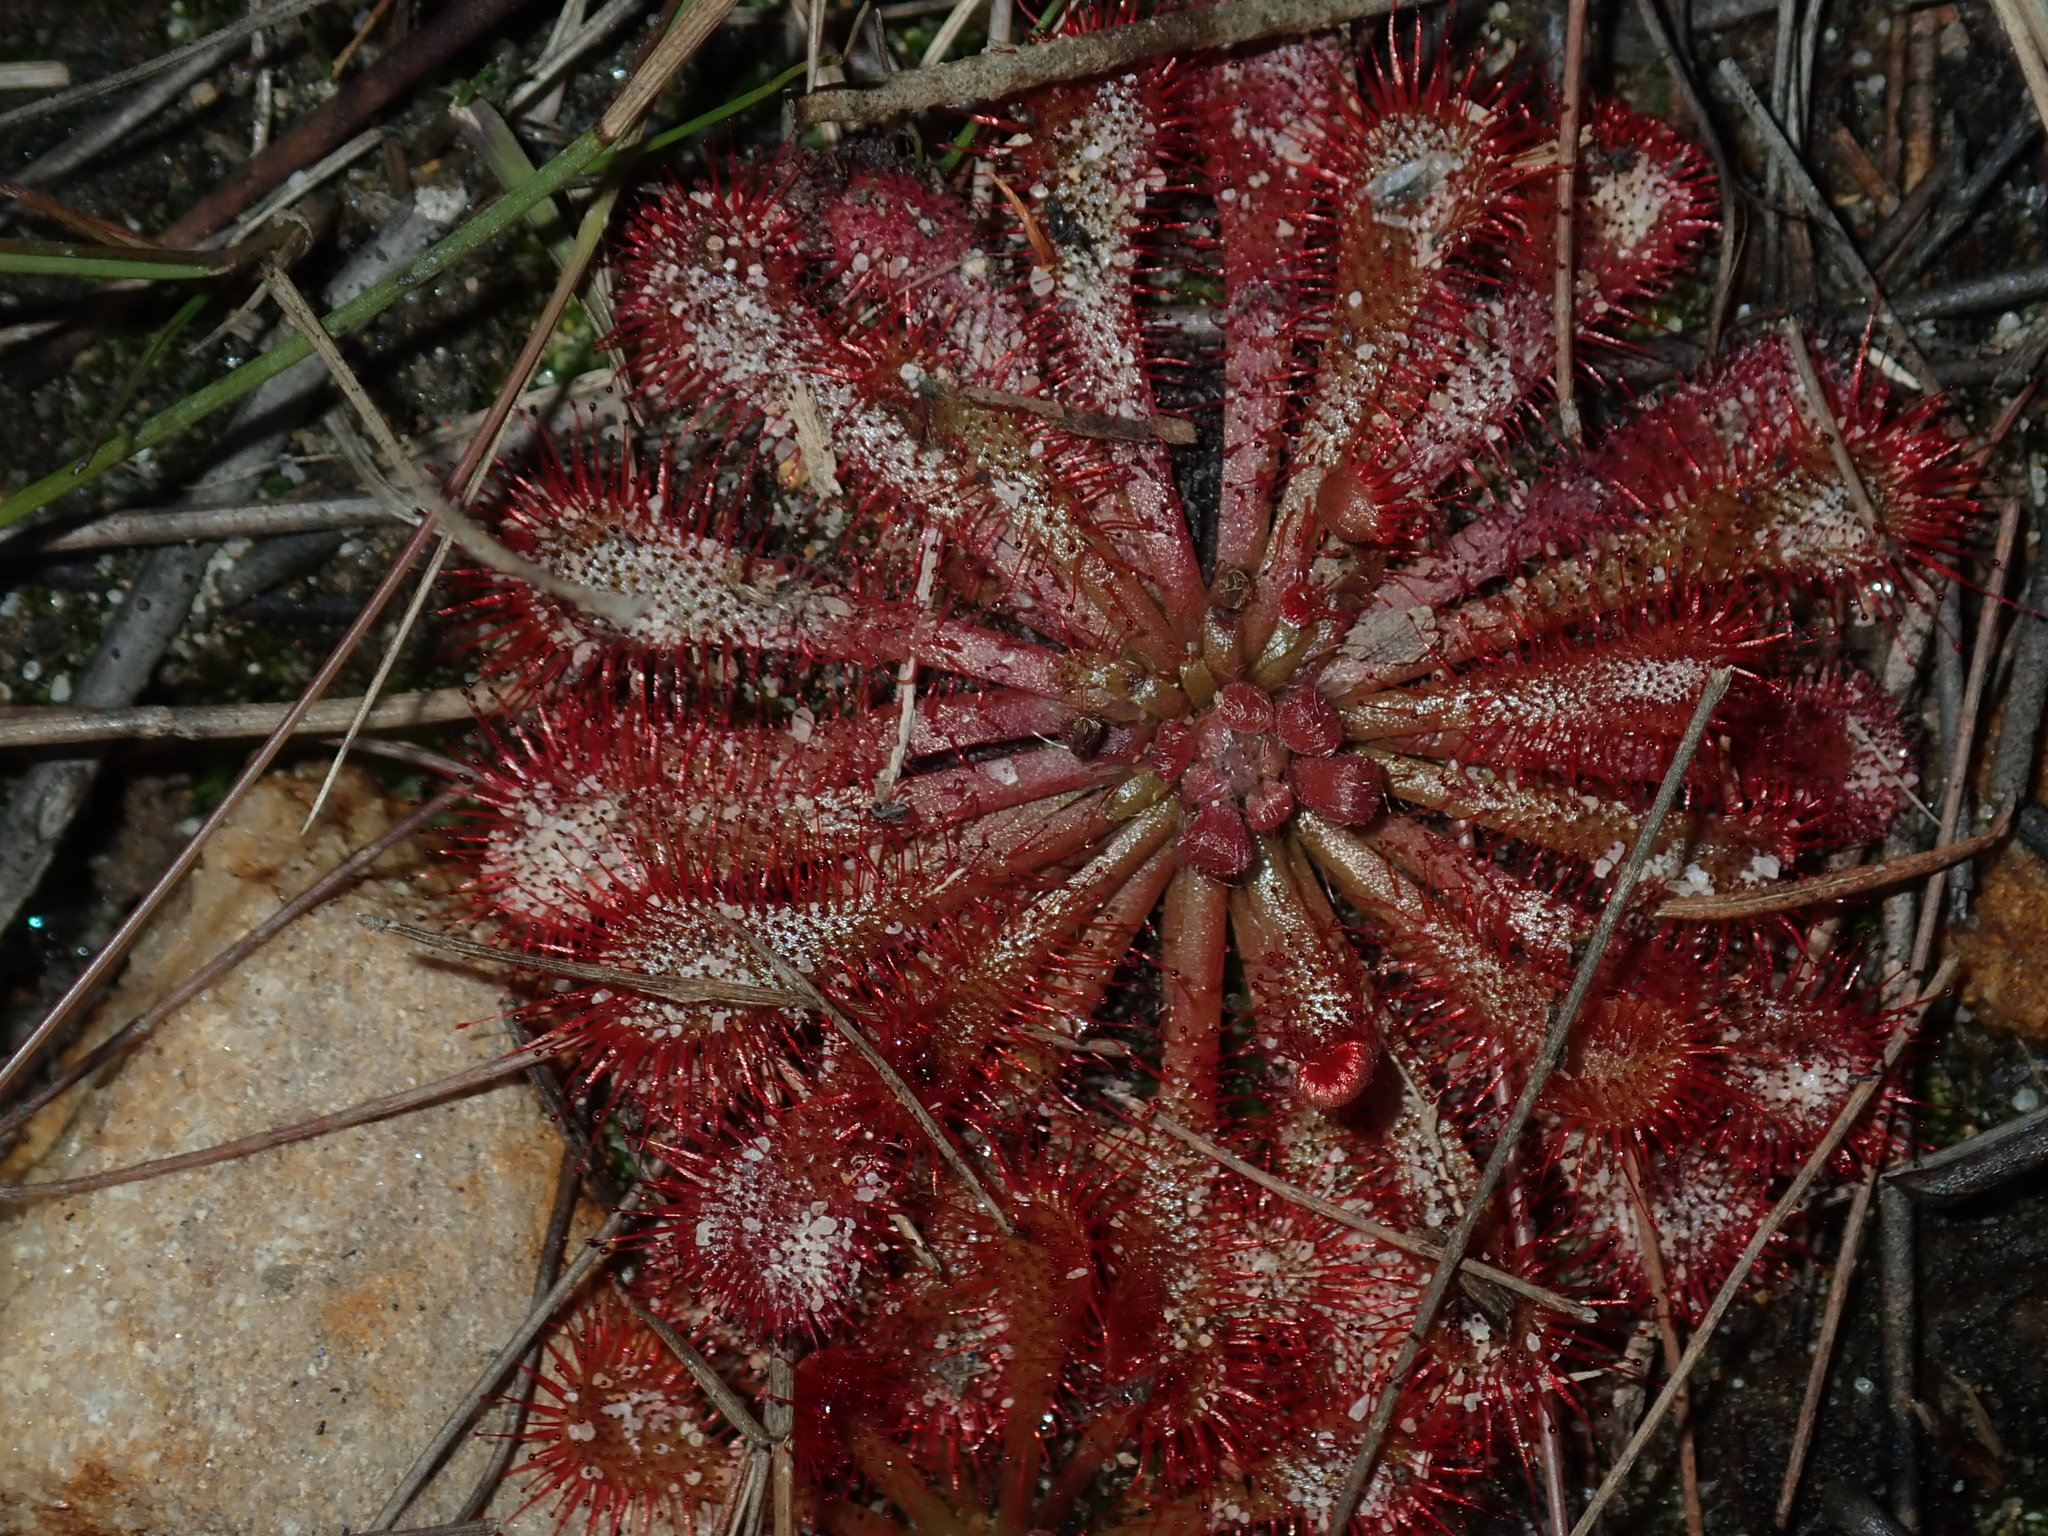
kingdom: Plantae
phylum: Tracheophyta
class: Magnoliopsida
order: Caryophyllales
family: Droseraceae
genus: Drosera
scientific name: Drosera spatulata
